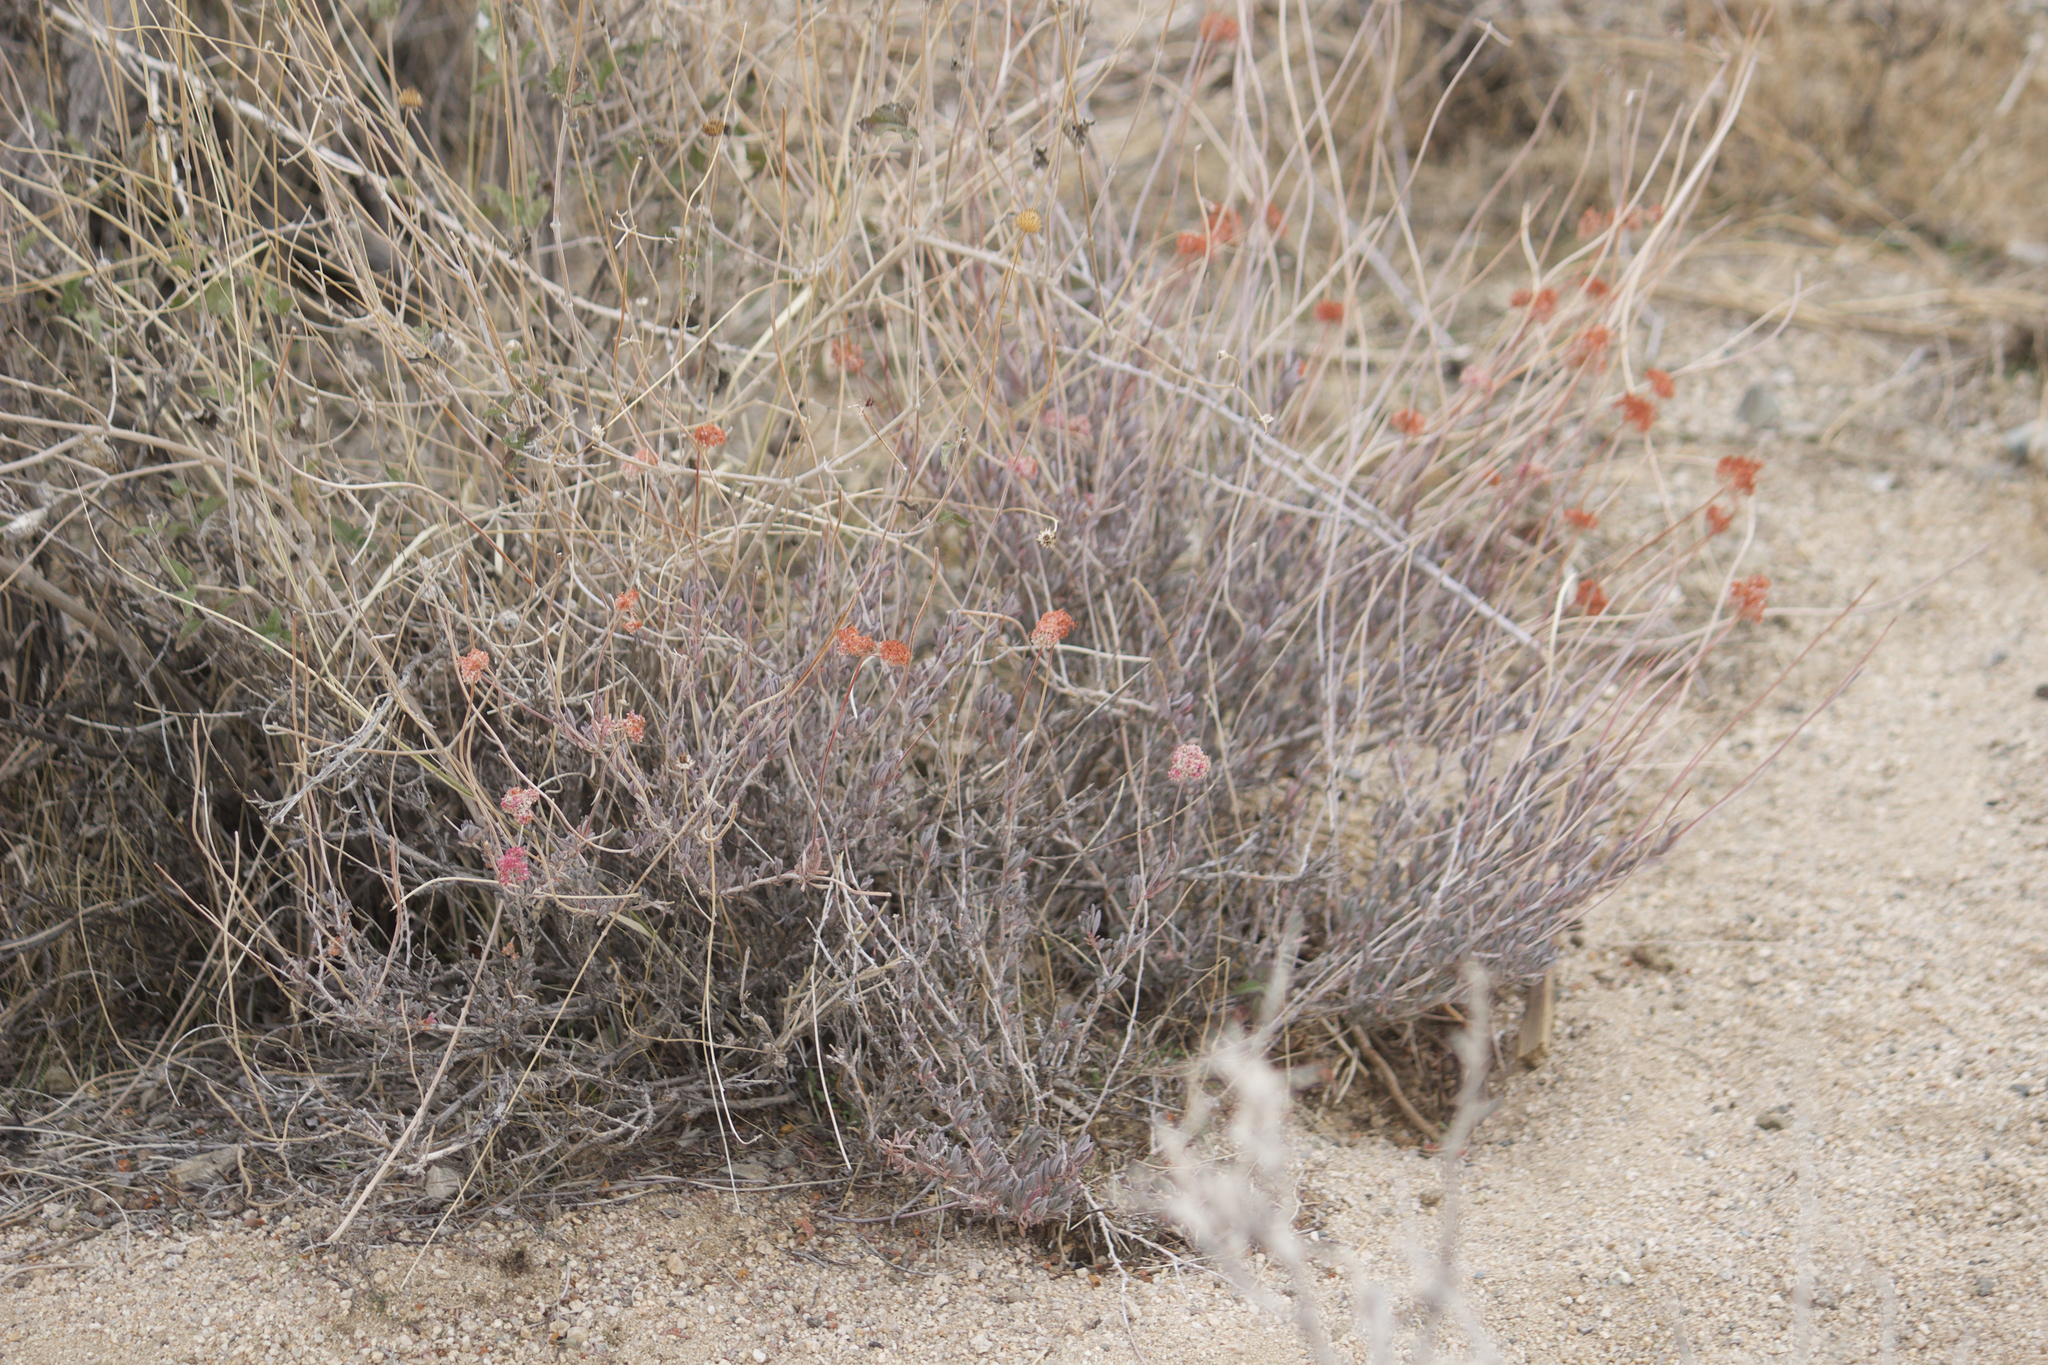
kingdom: Plantae
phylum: Tracheophyta
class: Magnoliopsida
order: Caryophyllales
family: Polygonaceae
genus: Eriogonum
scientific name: Eriogonum fasciculatum
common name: California wild buckwheat
